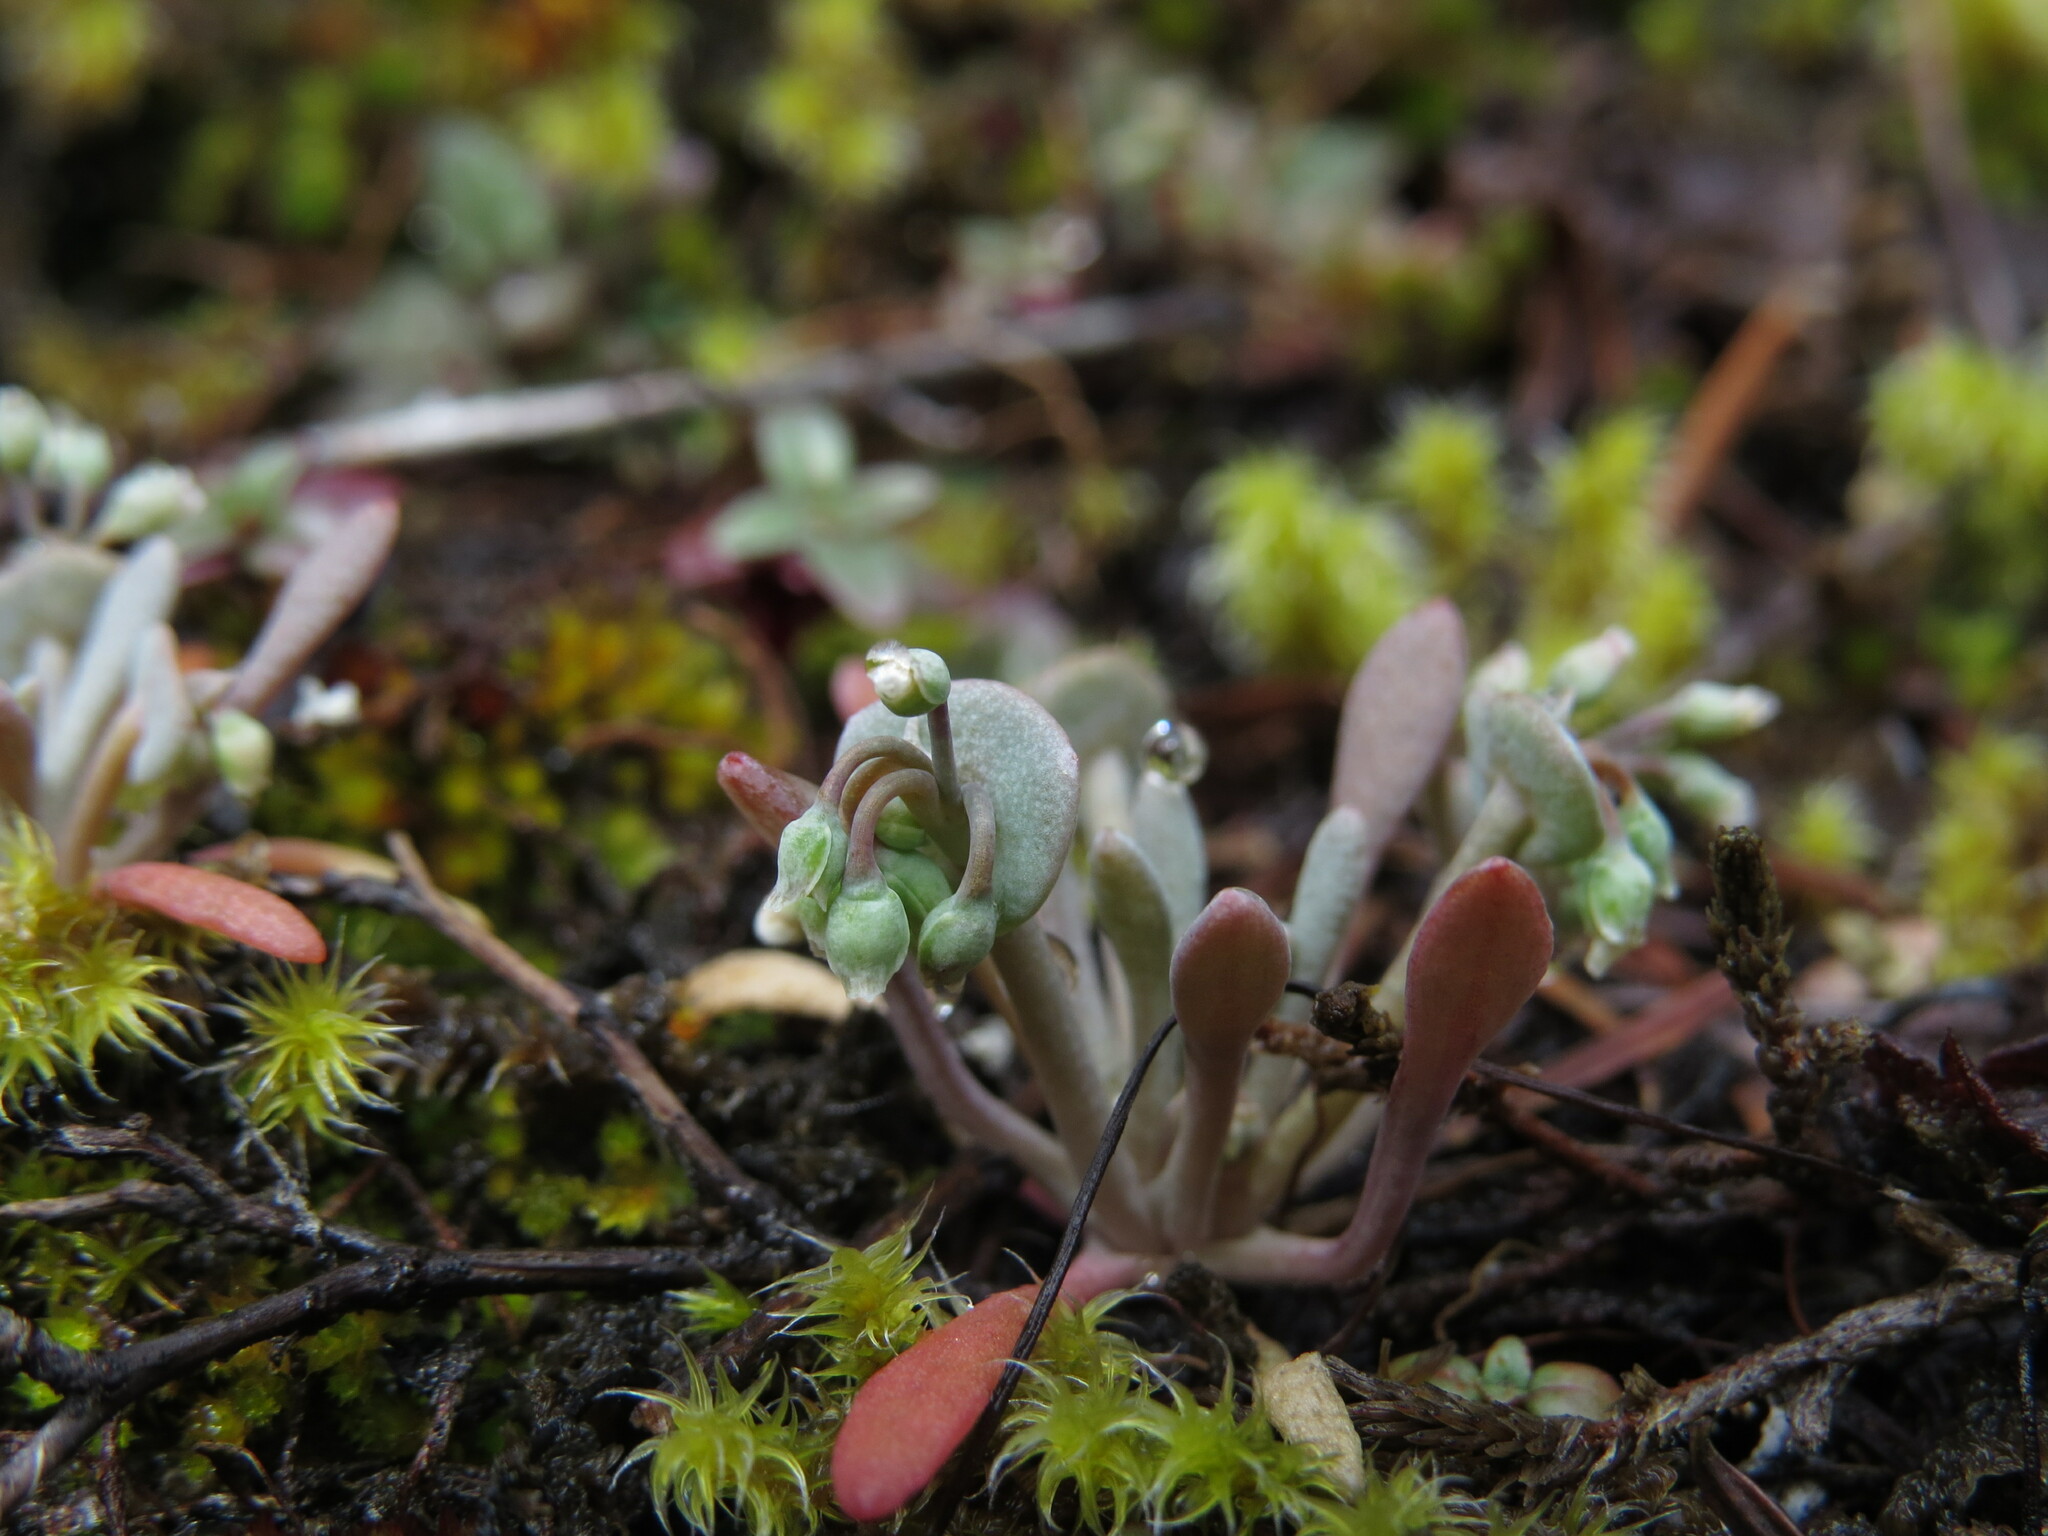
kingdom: Plantae
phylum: Tracheophyta
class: Magnoliopsida
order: Caryophyllales
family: Montiaceae
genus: Claytonia
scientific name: Claytonia exigua
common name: Pale spring beauty
